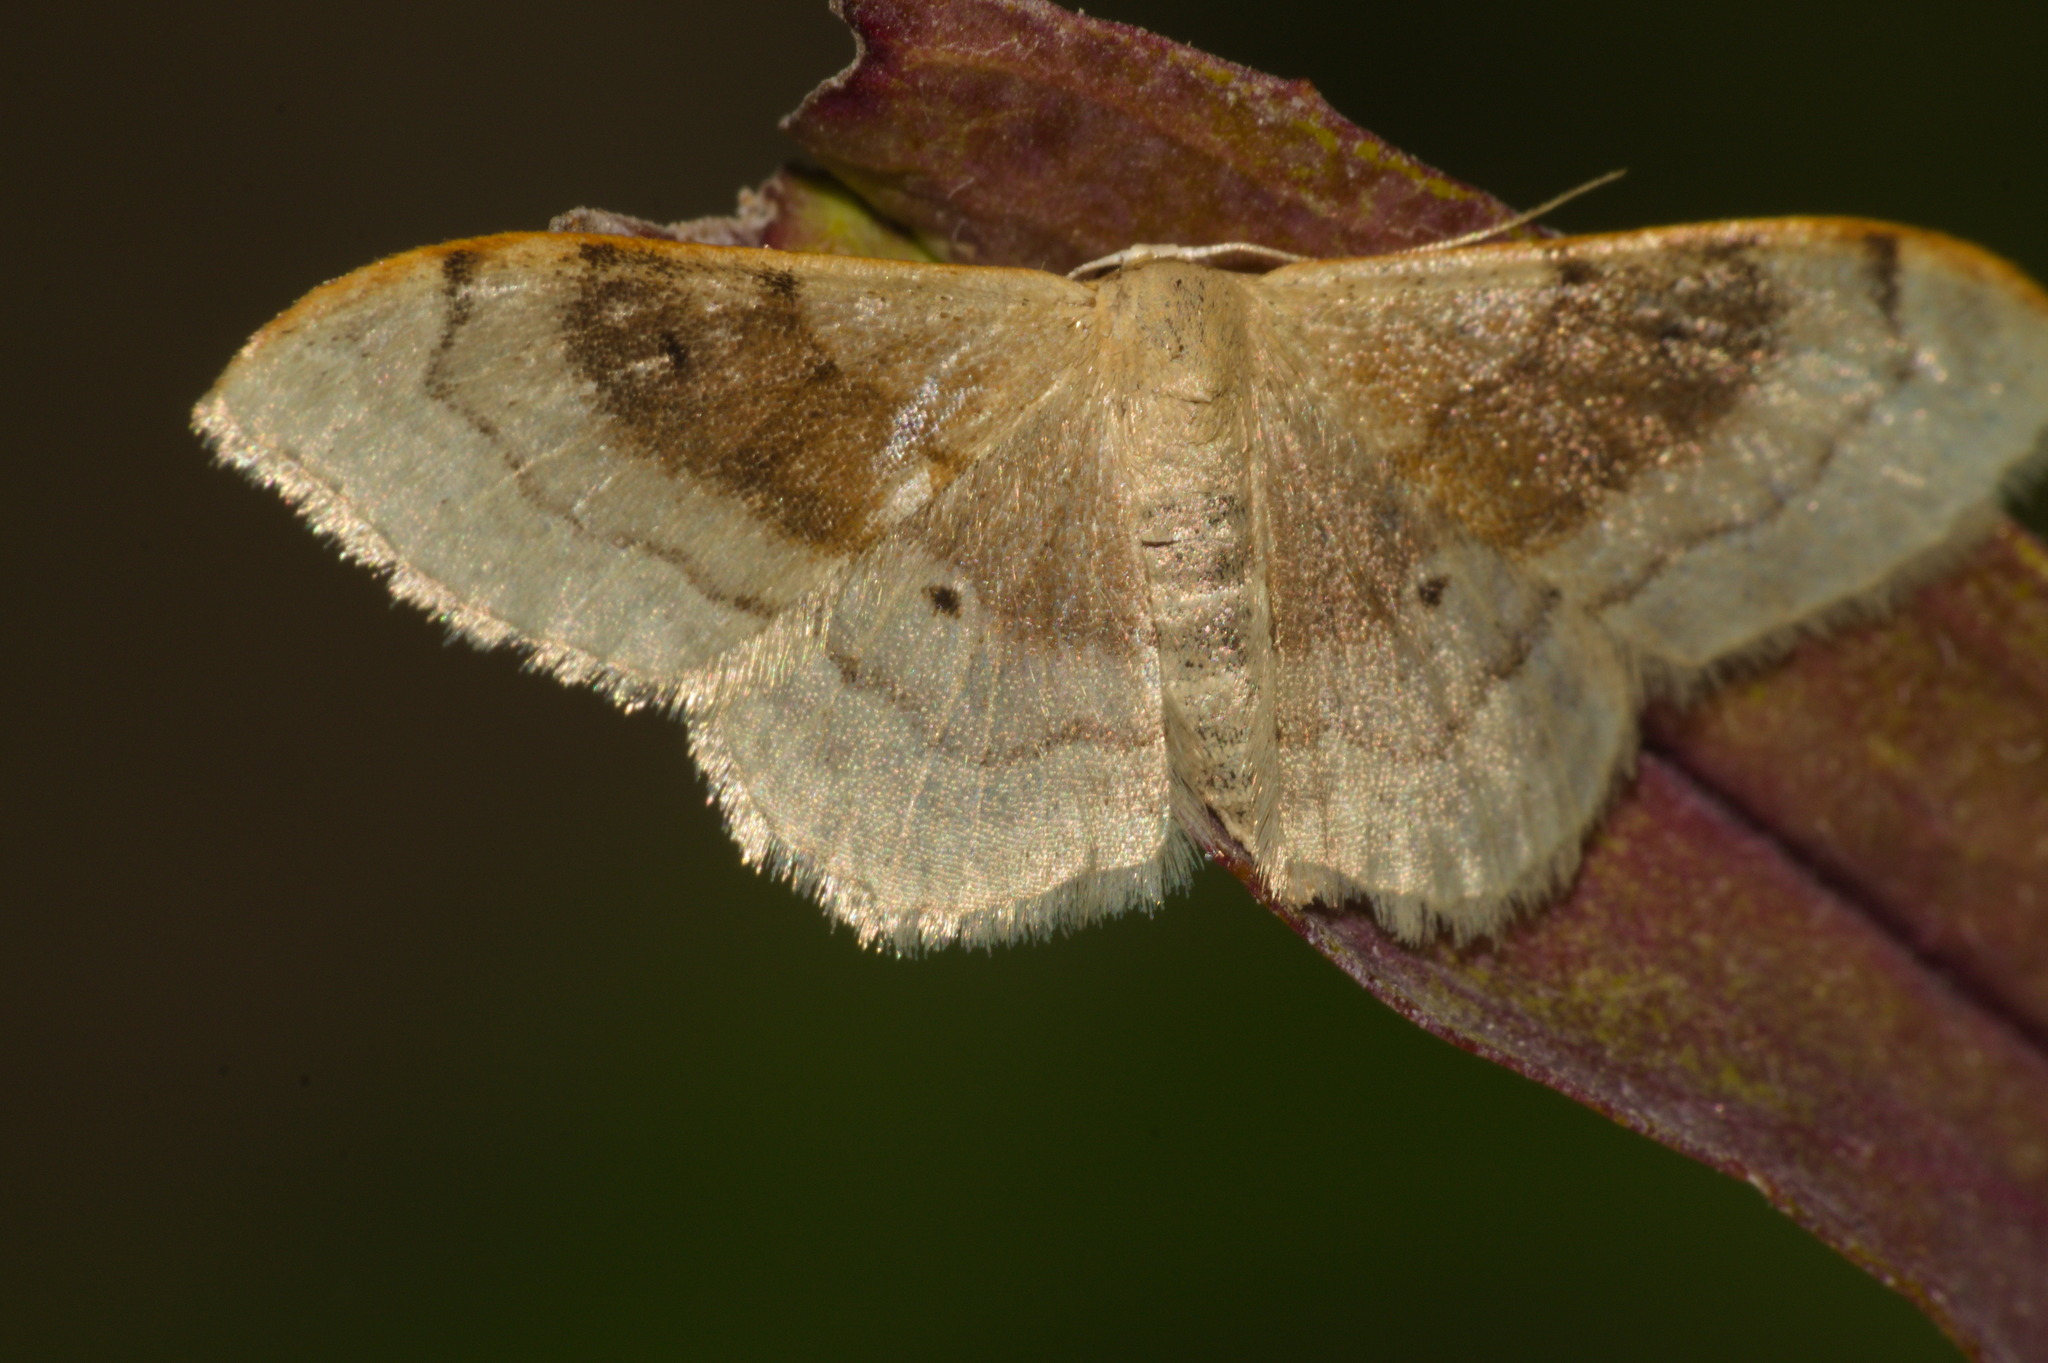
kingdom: Animalia
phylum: Arthropoda
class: Insecta
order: Lepidoptera
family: Geometridae
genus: Idaea
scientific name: Idaea degeneraria
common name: Portland ribbon wave
